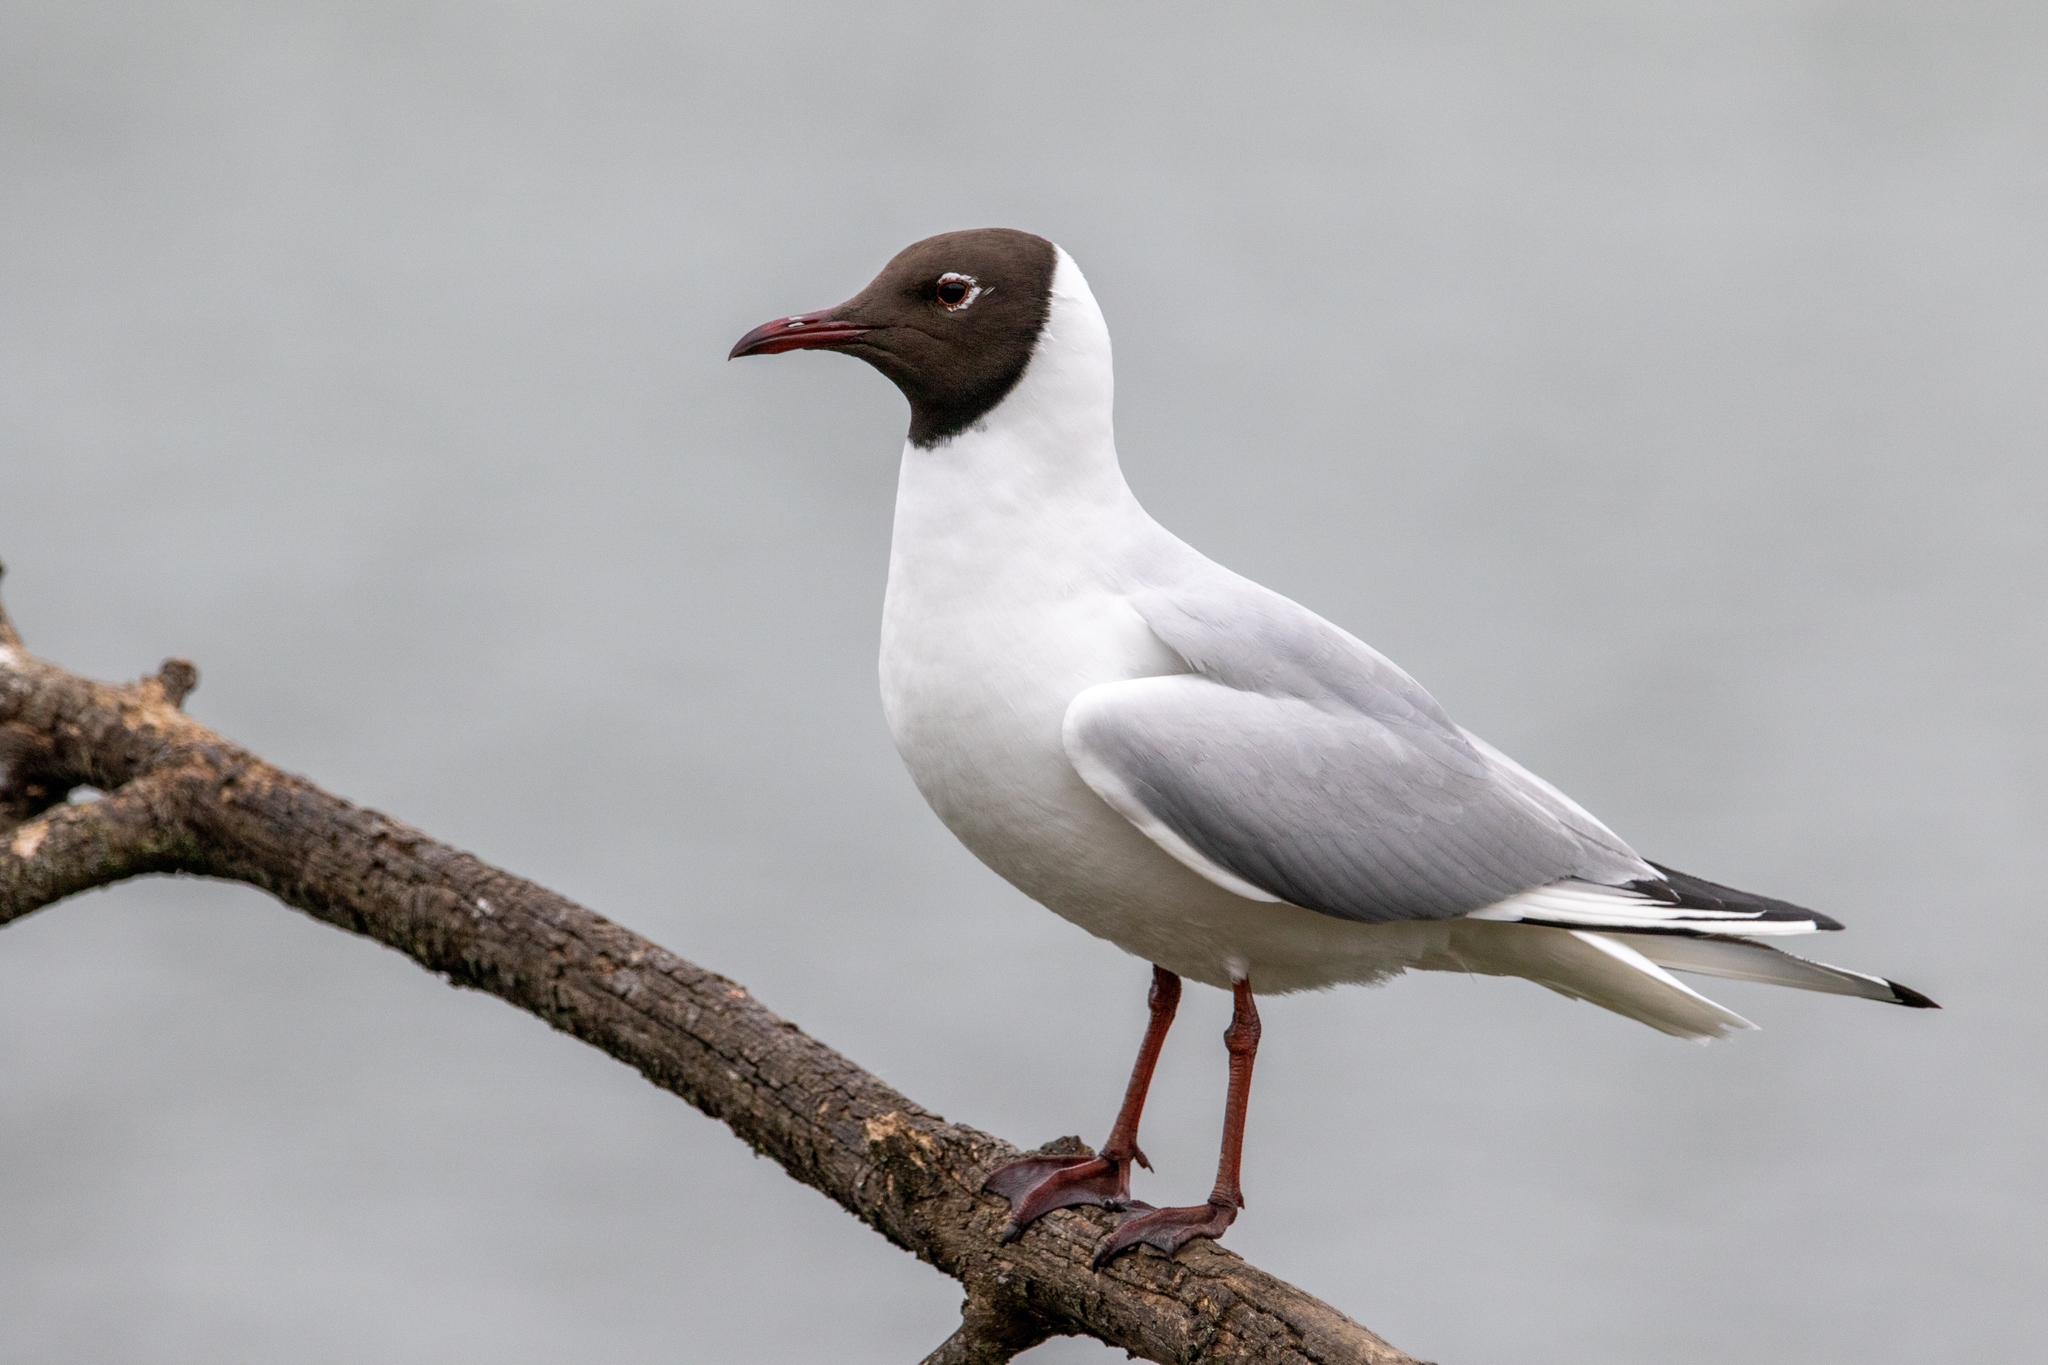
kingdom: Animalia
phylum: Chordata
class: Aves
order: Charadriiformes
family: Laridae
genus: Chroicocephalus
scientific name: Chroicocephalus ridibundus
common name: Black-headed gull
